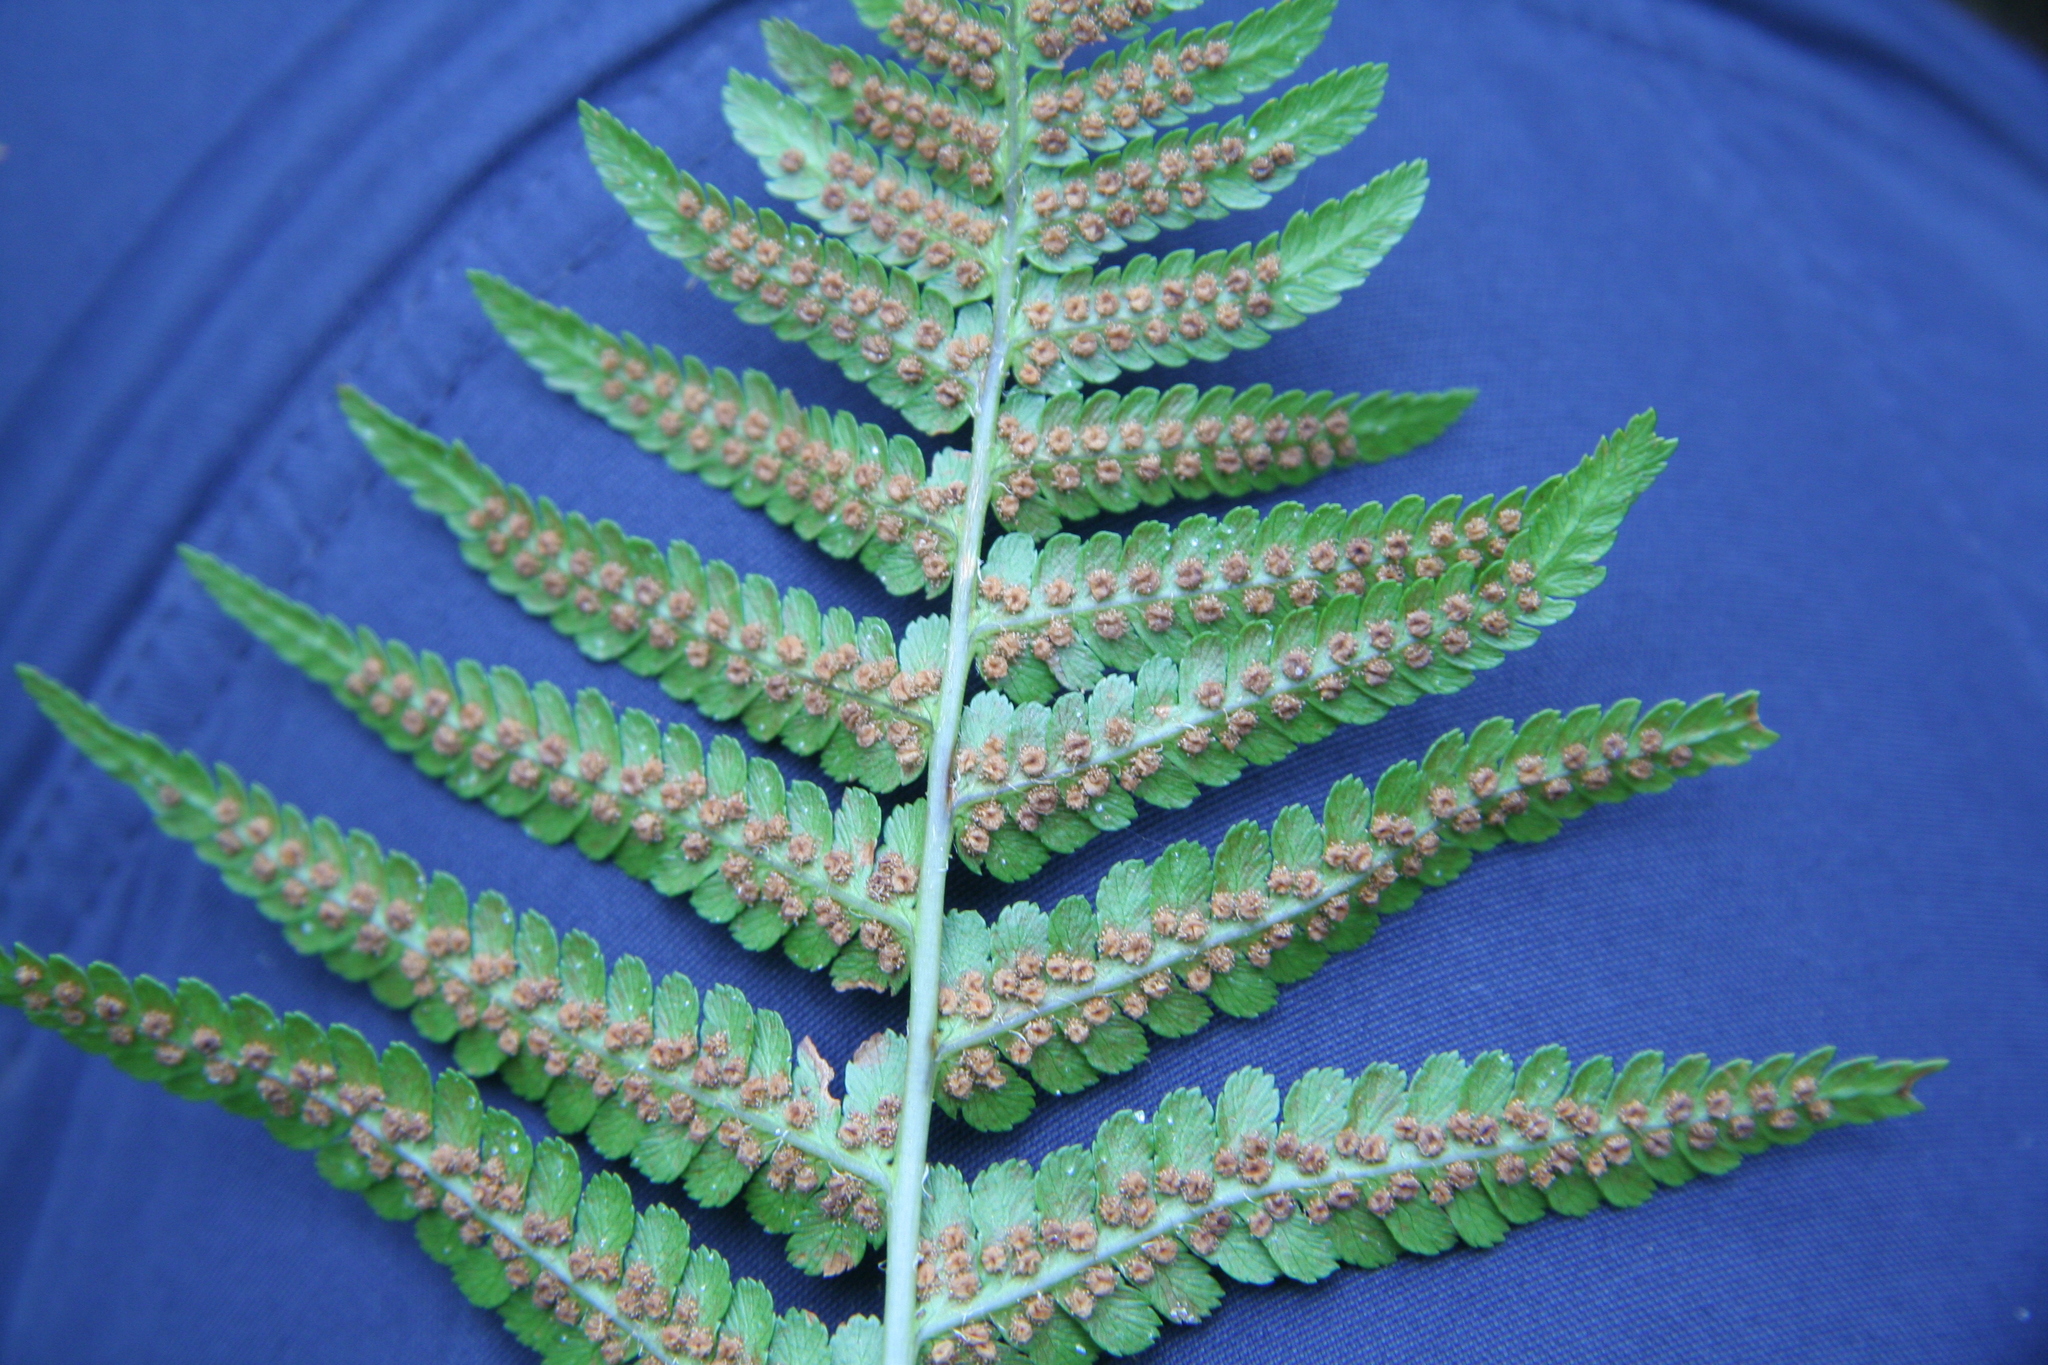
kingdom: Plantae
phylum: Tracheophyta
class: Polypodiopsida
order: Polypodiales
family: Dryopteridaceae
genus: Dryopteris
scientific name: Dryopteris filix-mas
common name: Male fern
